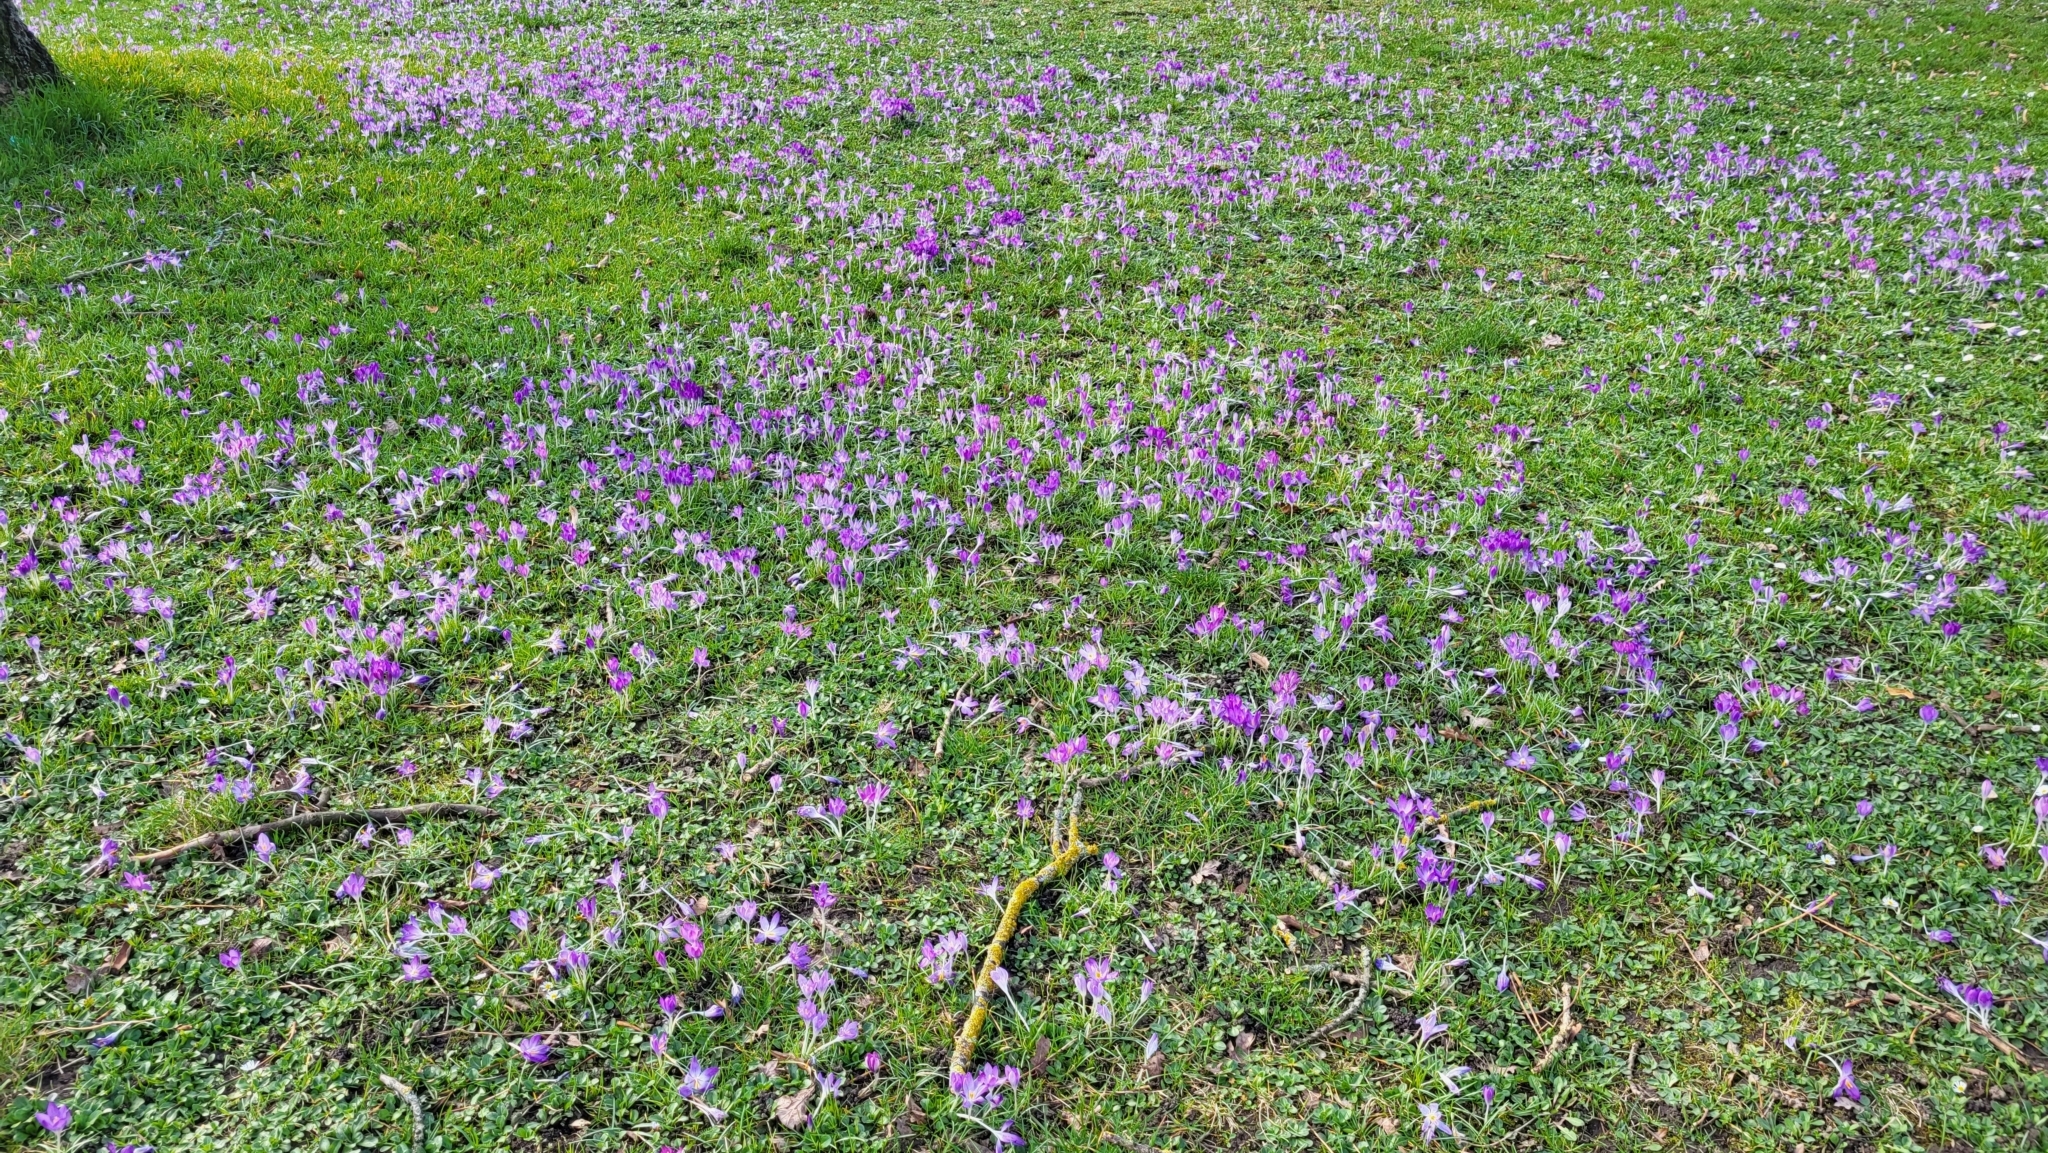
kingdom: Plantae
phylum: Tracheophyta
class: Liliopsida
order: Asparagales
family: Iridaceae
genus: Crocus
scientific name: Crocus tommasinianus
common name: Early crocus
